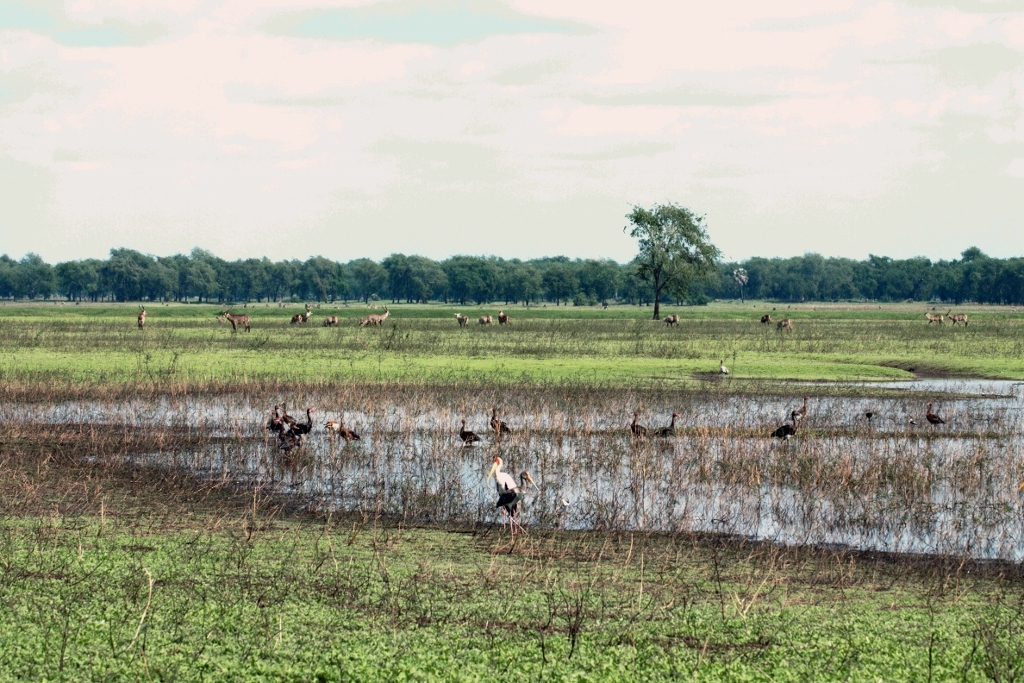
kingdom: Animalia
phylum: Chordata
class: Aves
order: Anseriformes
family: Anatidae
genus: Plectropterus
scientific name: Plectropterus gambensis
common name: Spur-winged goose
